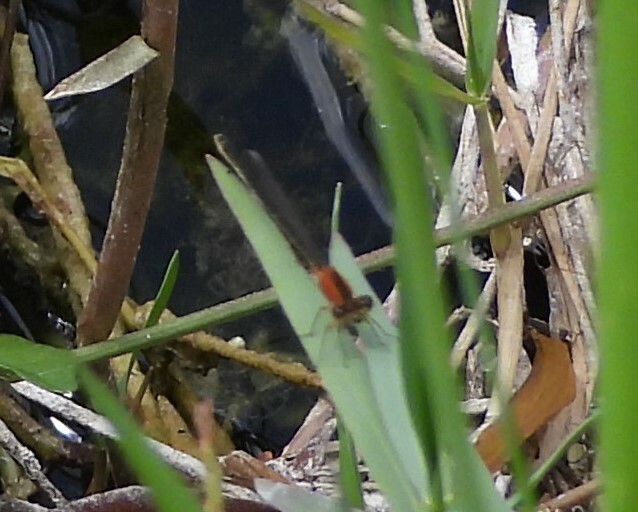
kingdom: Animalia
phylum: Arthropoda
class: Insecta
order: Odonata
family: Coenagrionidae
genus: Ischnura
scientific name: Ischnura ramburii
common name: Rambur's forktail
